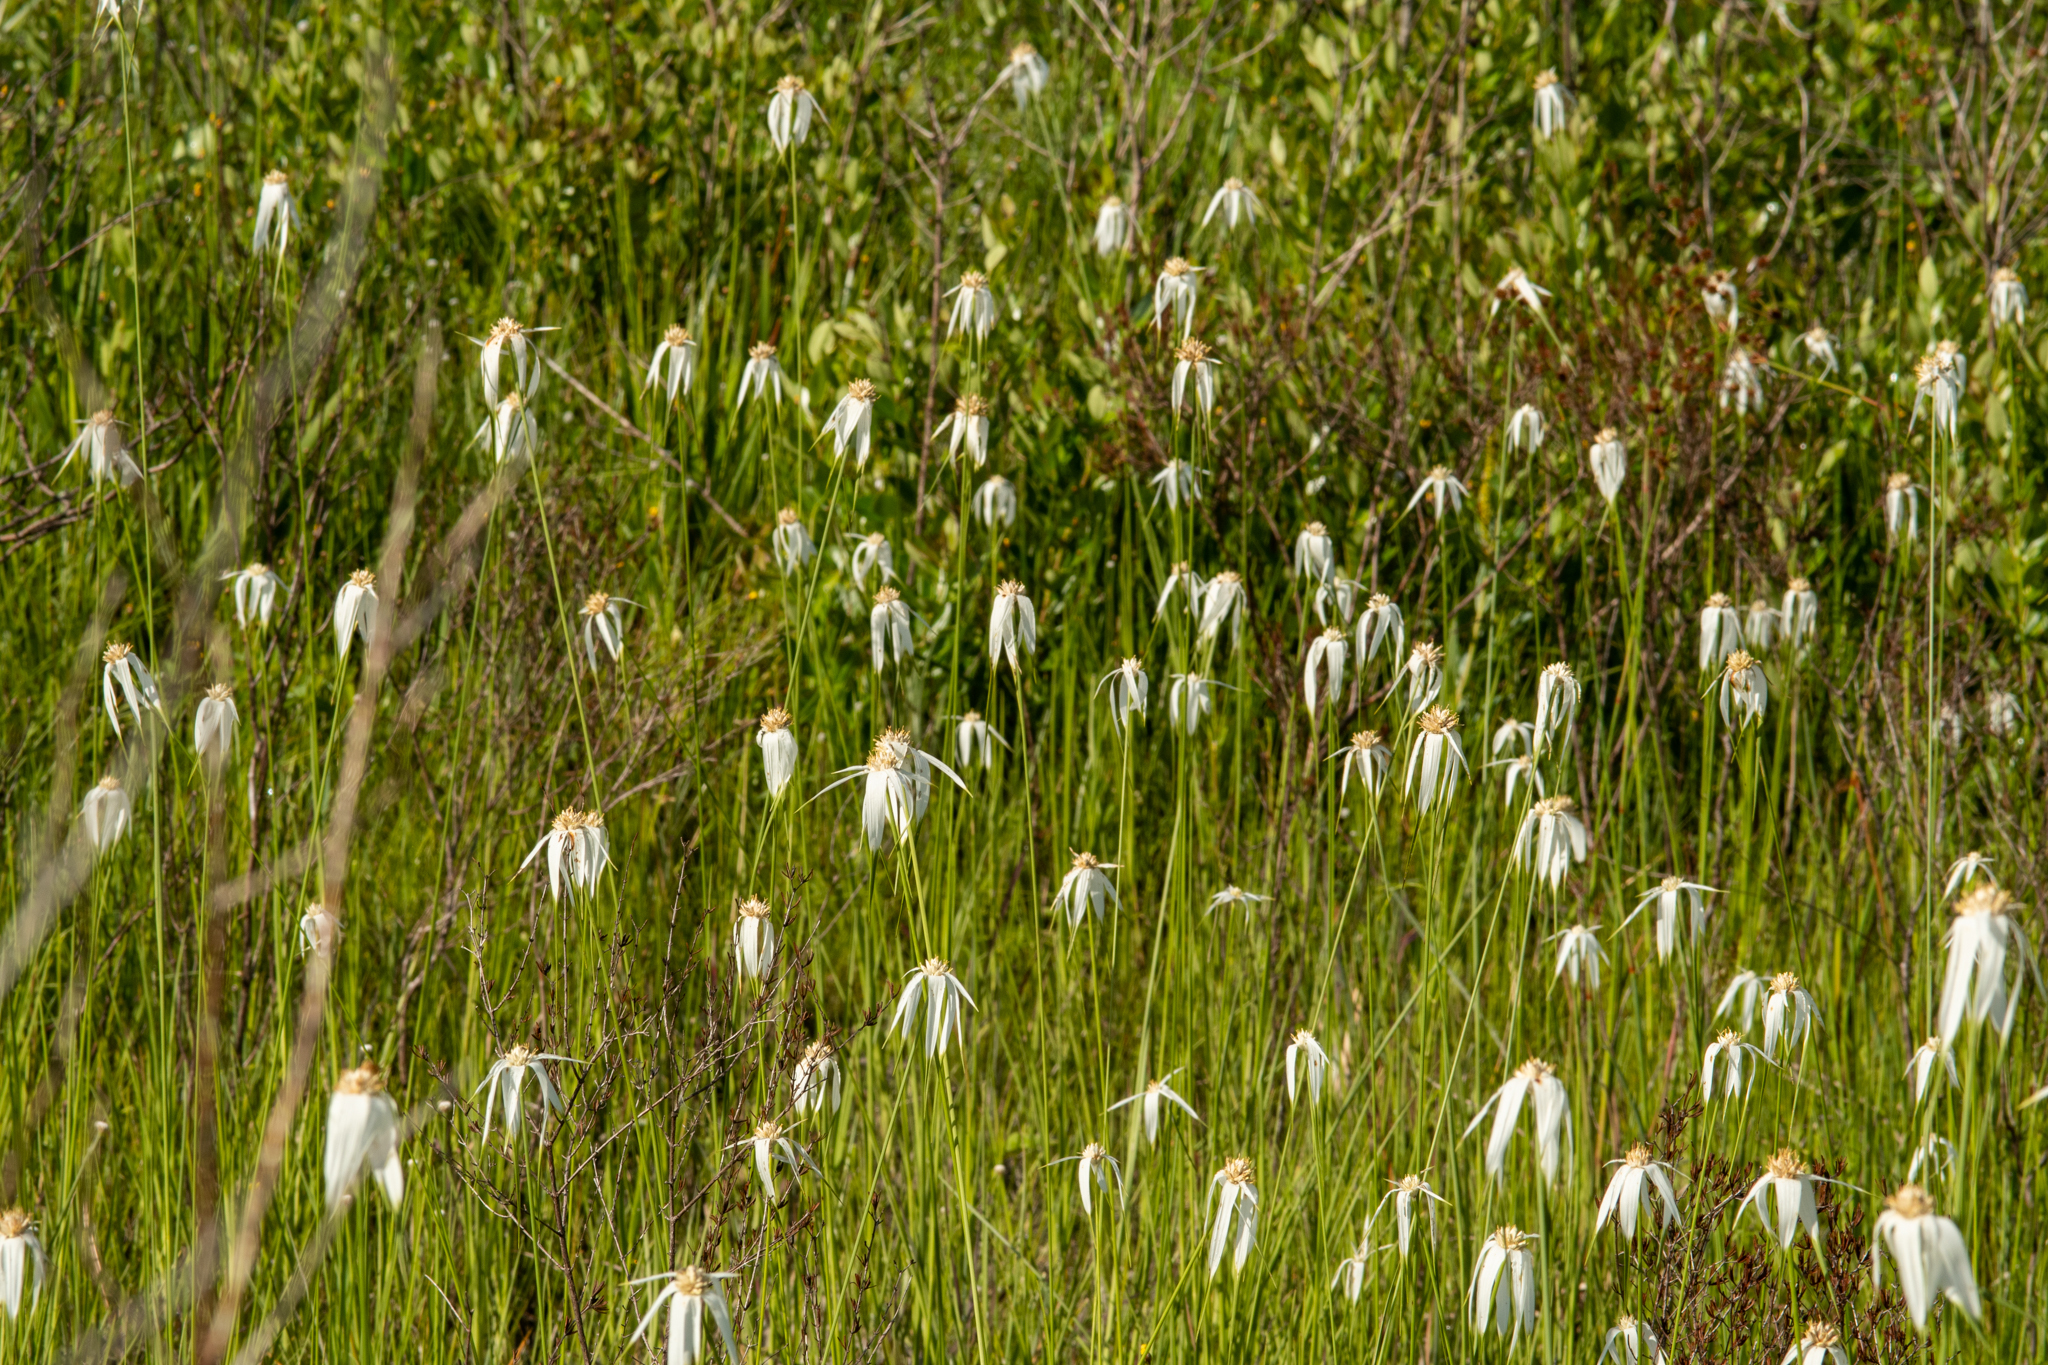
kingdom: Plantae
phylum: Tracheophyta
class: Liliopsida
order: Poales
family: Cyperaceae
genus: Rhynchospora
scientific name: Rhynchospora latifolia
